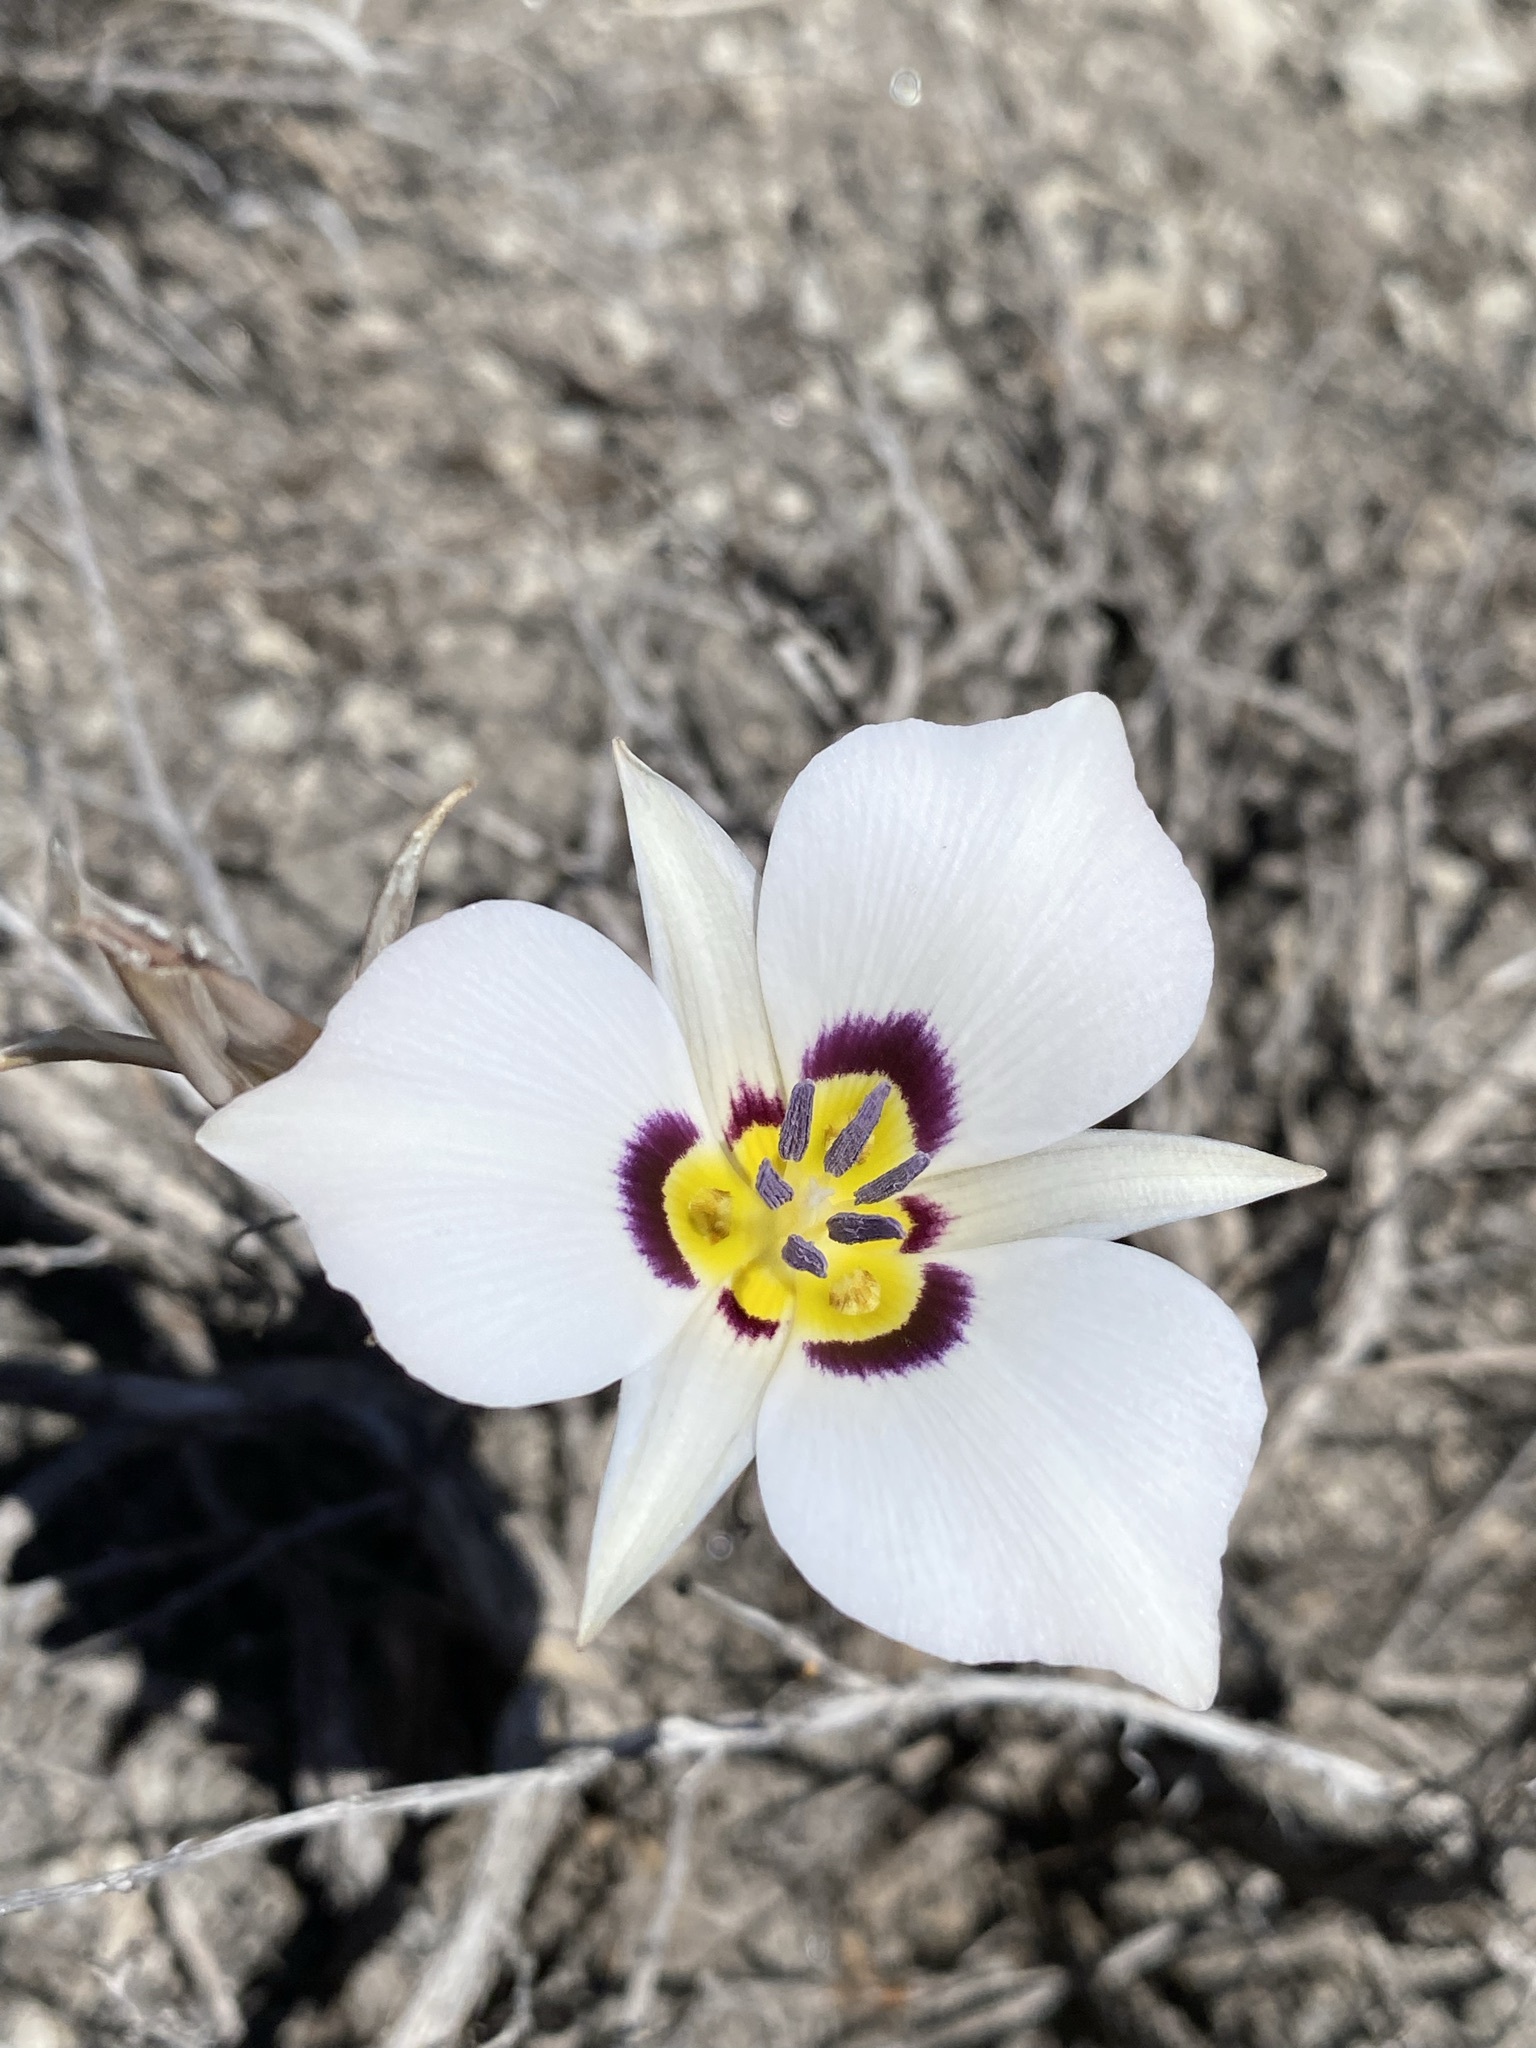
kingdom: Plantae
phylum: Tracheophyta
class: Liliopsida
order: Liliales
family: Liliaceae
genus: Calochortus
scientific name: Calochortus bruneaunis
